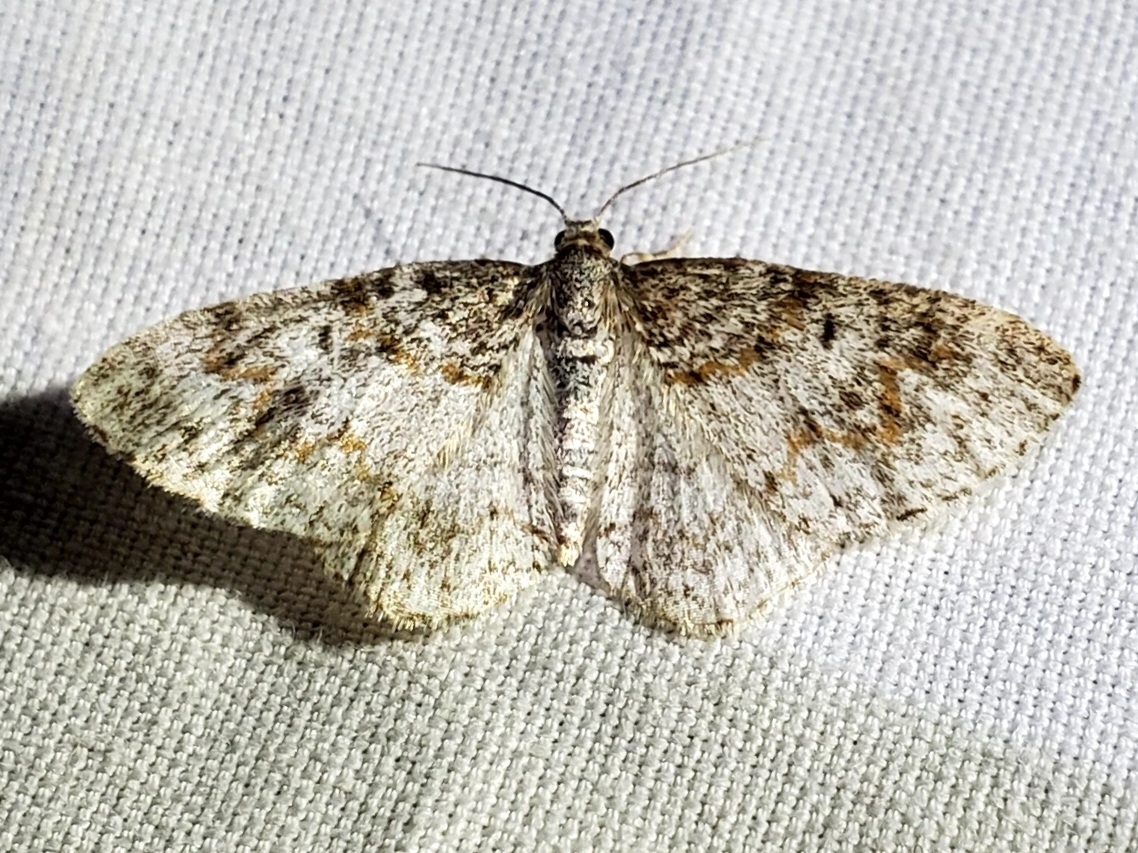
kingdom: Animalia
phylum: Arthropoda
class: Insecta
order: Lepidoptera
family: Geometridae
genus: Hydrelia
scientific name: Hydrelia inornata
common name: Unadorned carpet moth
